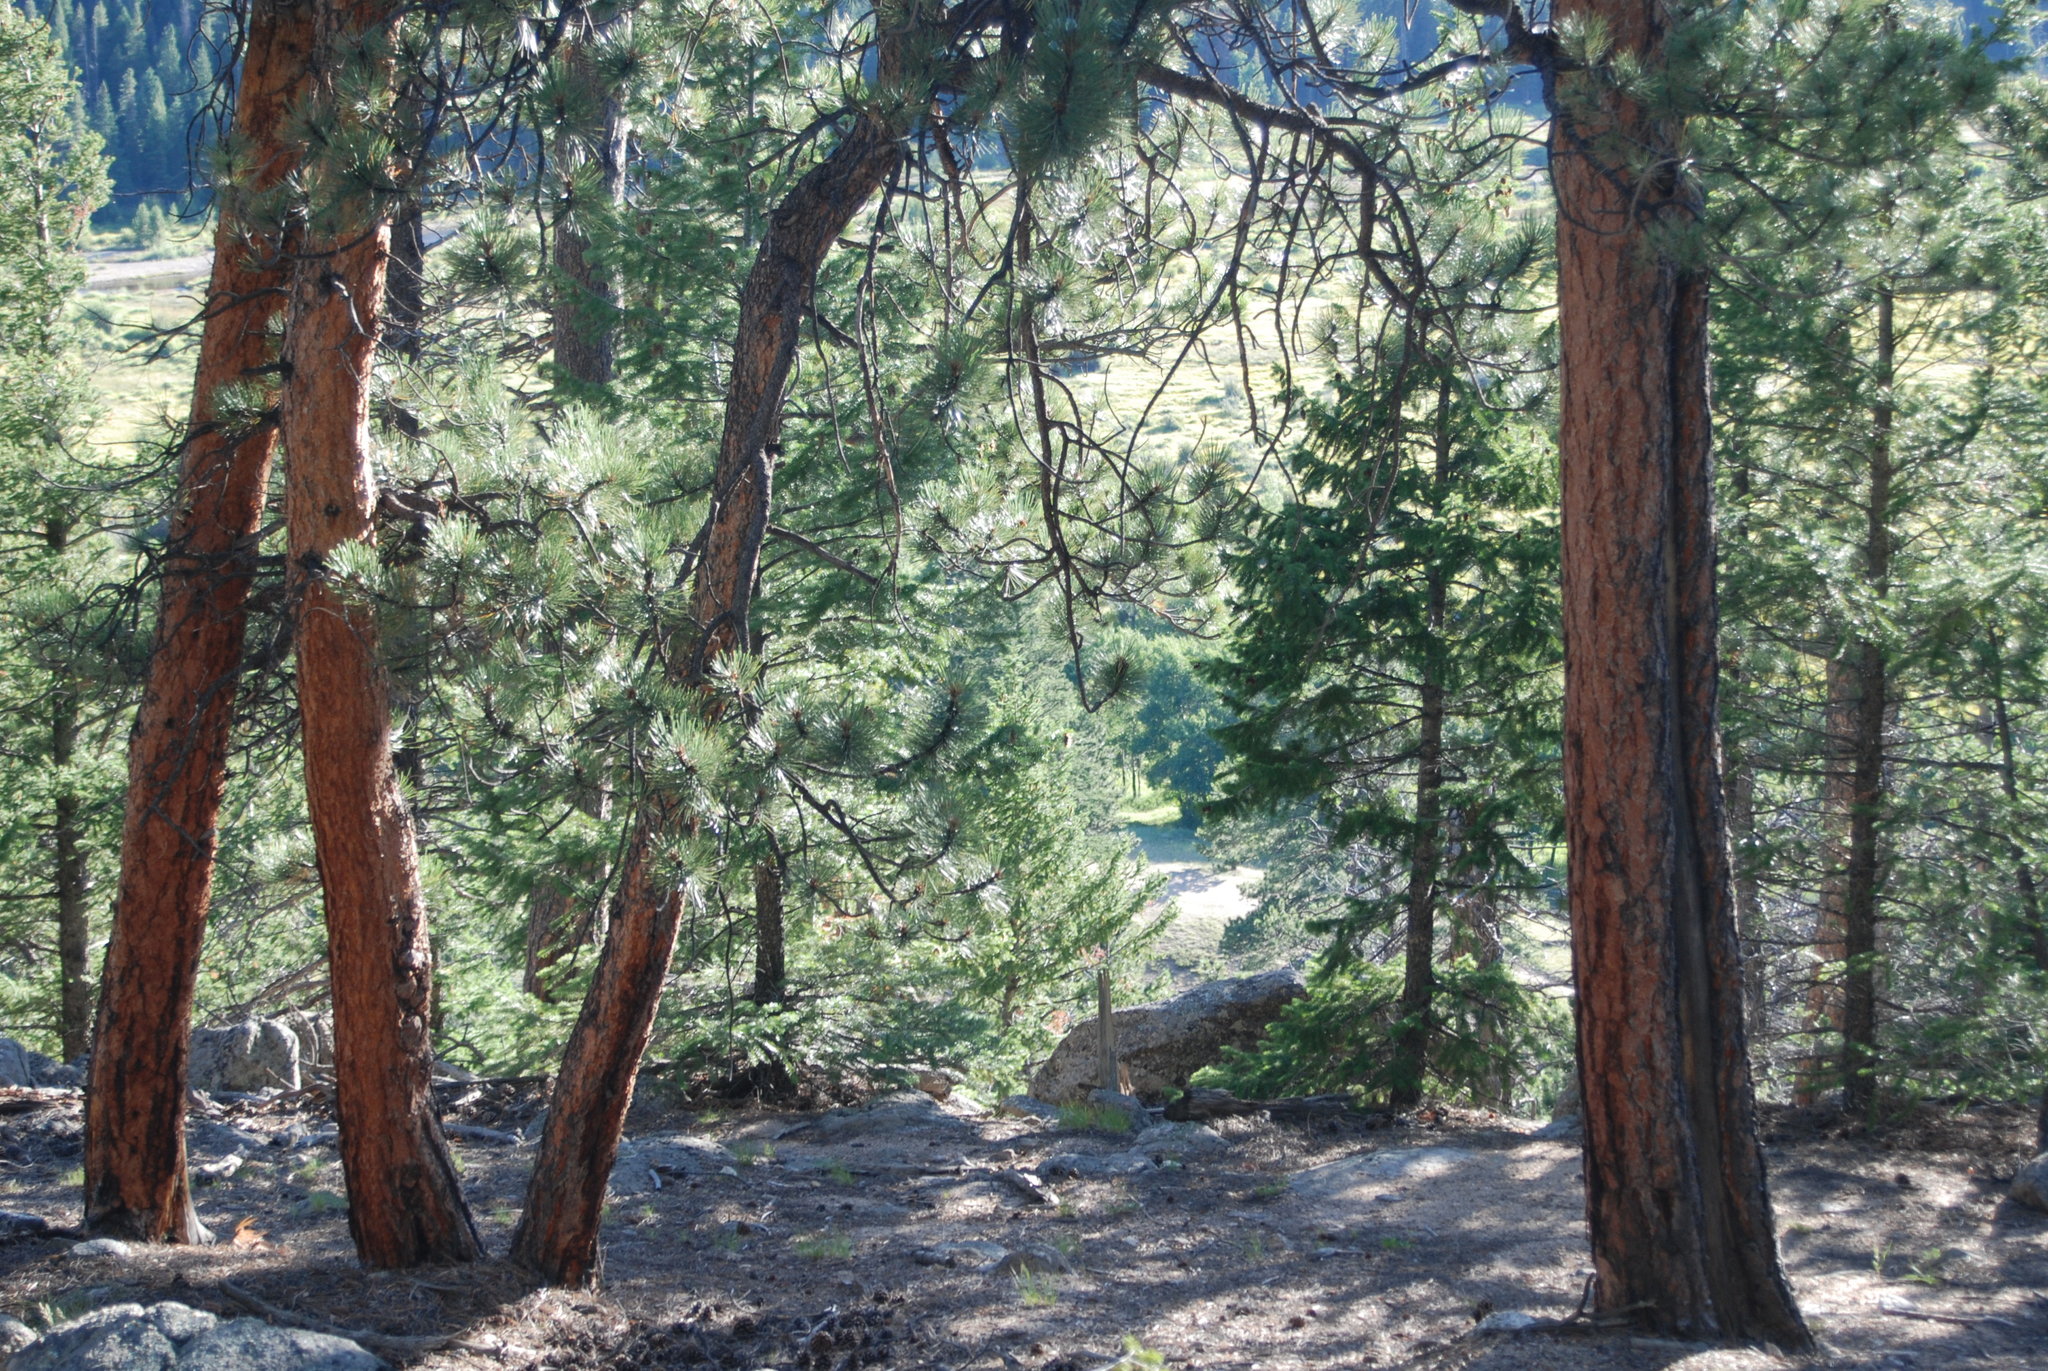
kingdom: Plantae
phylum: Tracheophyta
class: Pinopsida
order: Pinales
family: Pinaceae
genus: Pinus
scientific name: Pinus ponderosa
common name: Western yellow-pine
